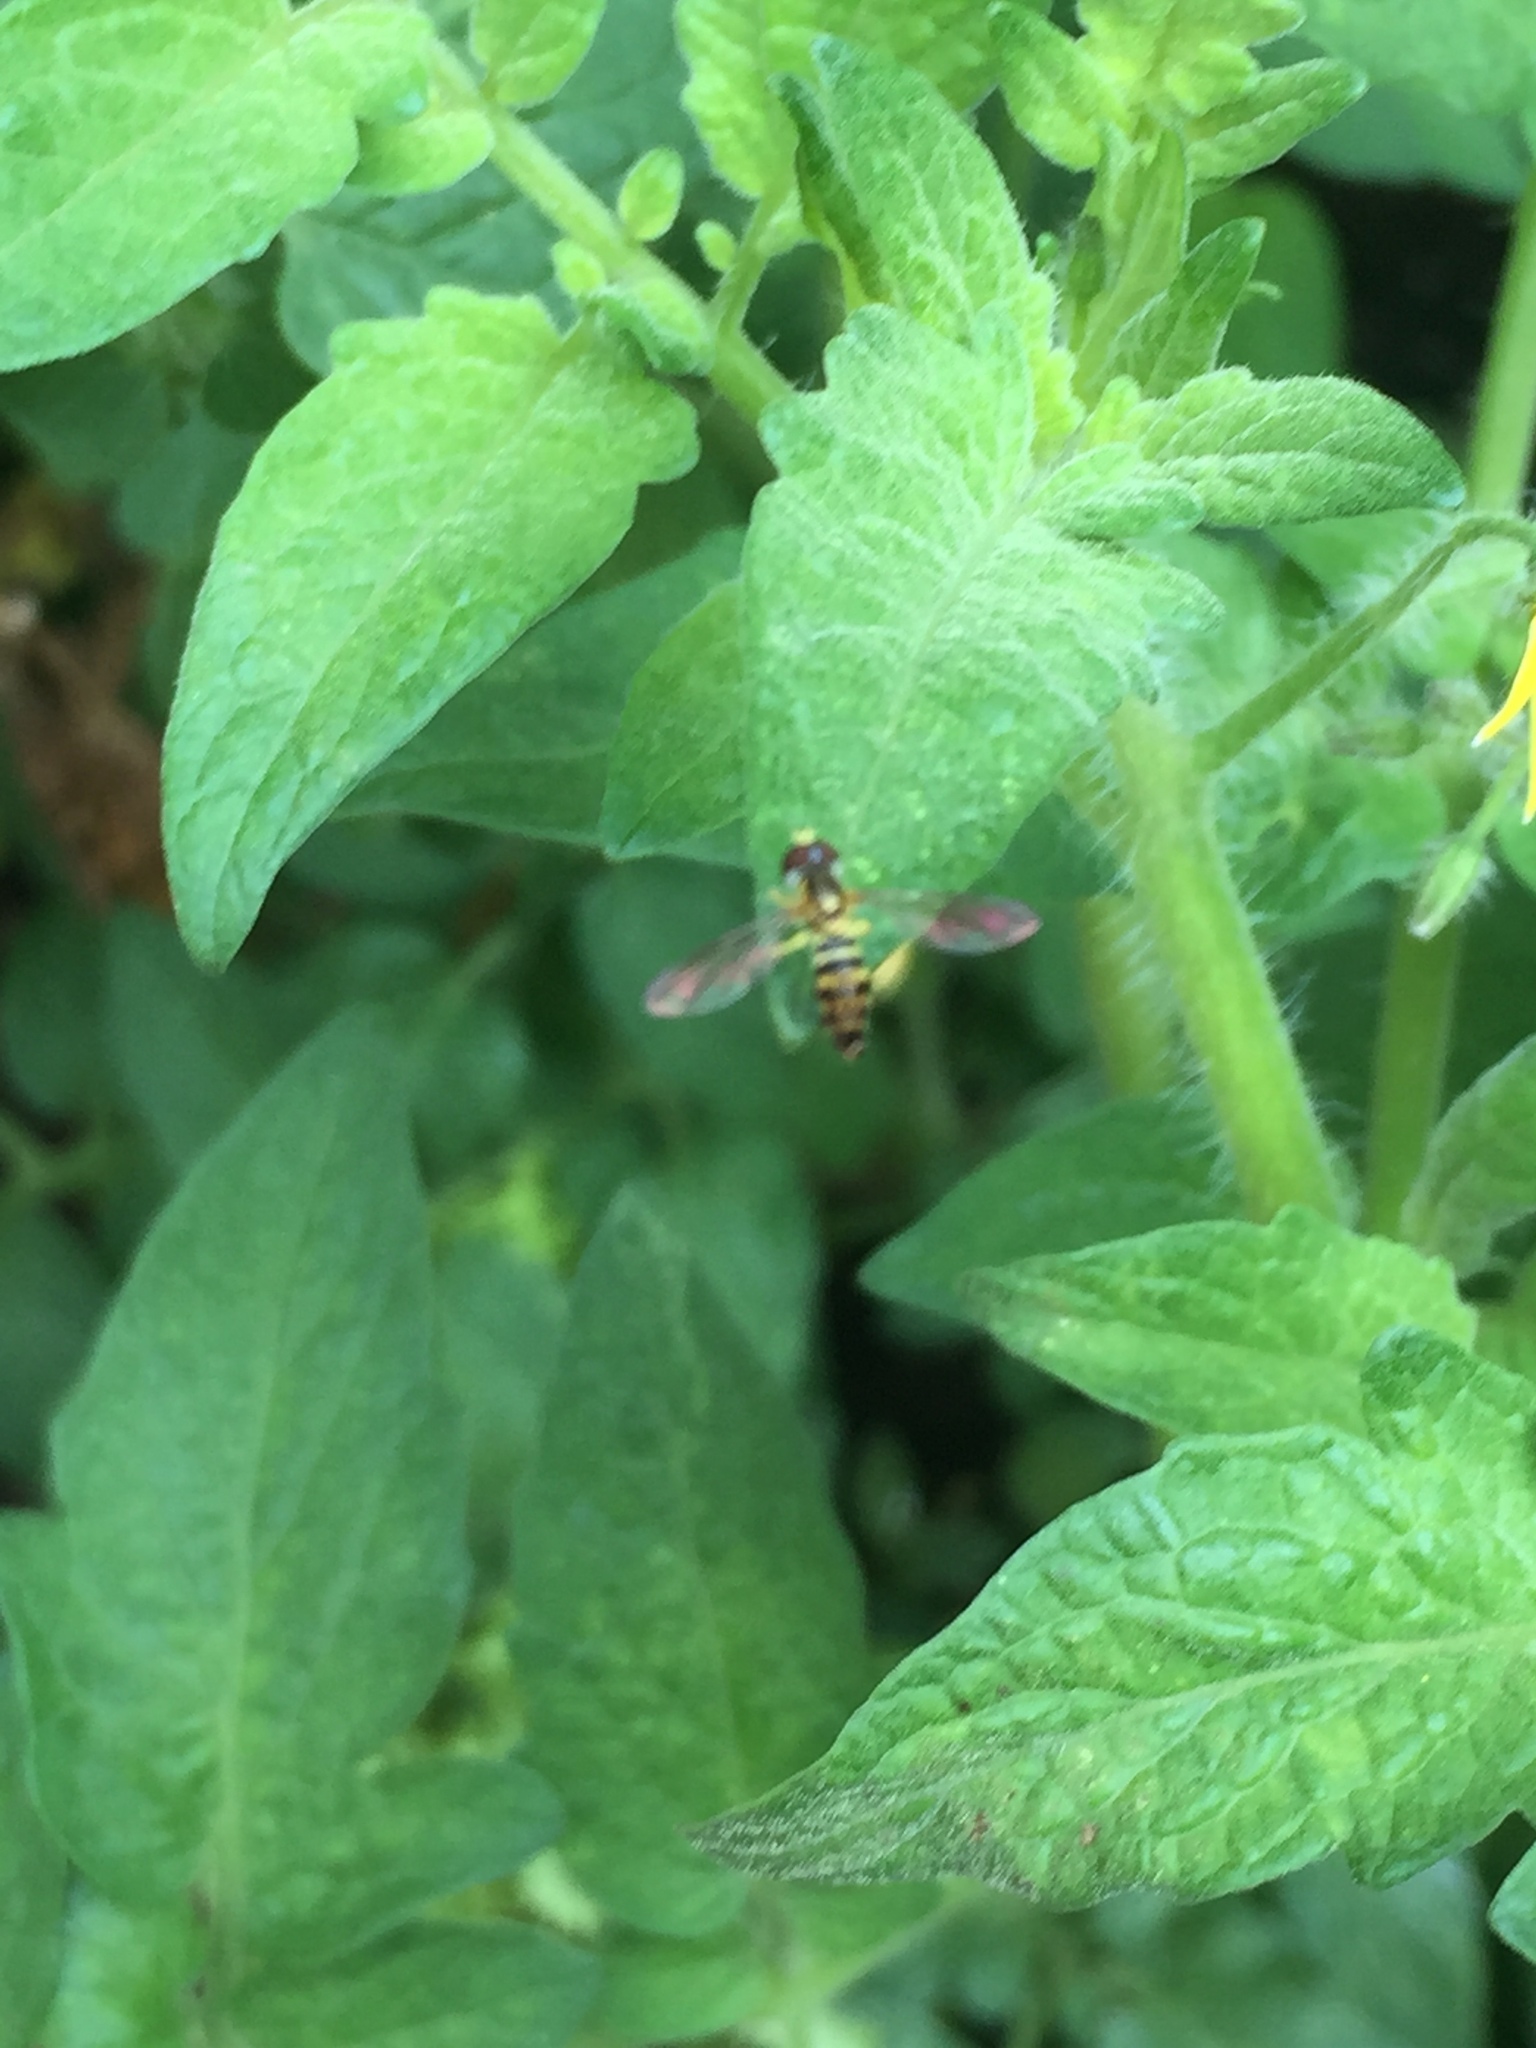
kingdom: Animalia
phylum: Arthropoda
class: Insecta
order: Diptera
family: Syrphidae
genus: Toxomerus
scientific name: Toxomerus geminatus
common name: Eastern calligrapher
